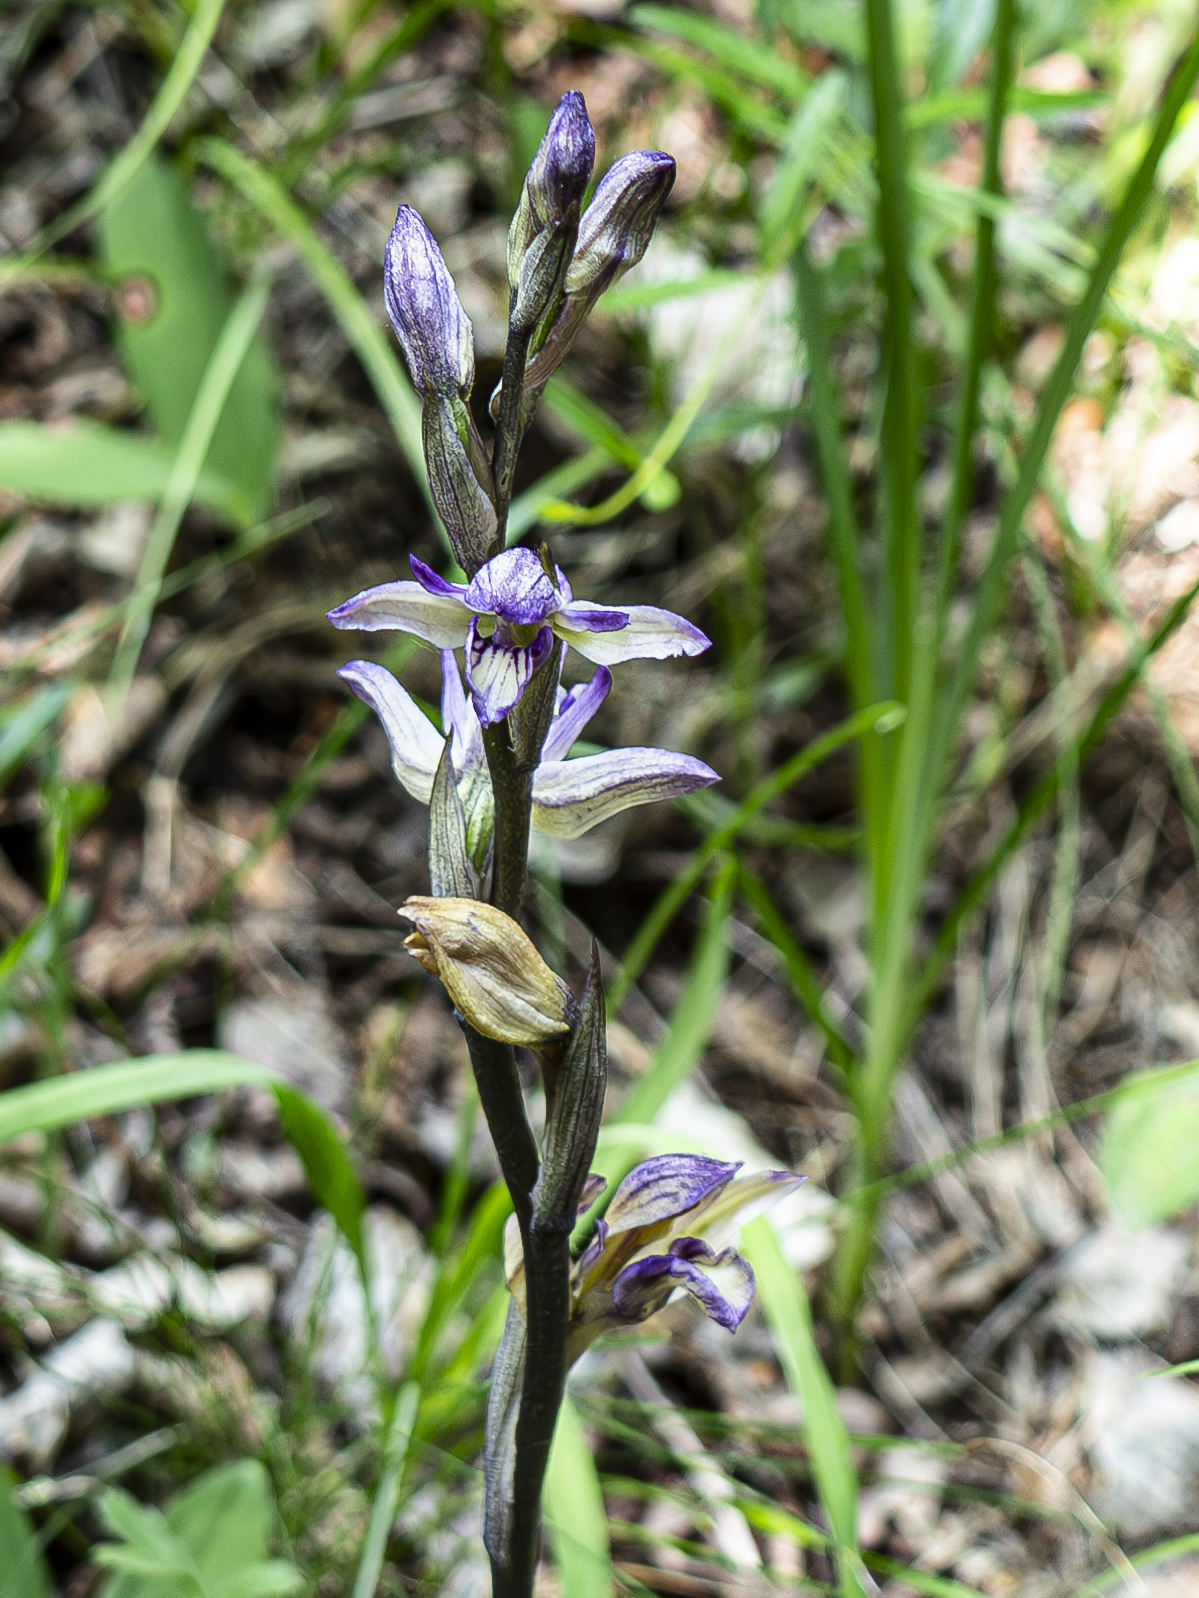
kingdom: Plantae
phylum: Tracheophyta
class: Liliopsida
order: Asparagales
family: Orchidaceae
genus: Limodorum
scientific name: Limodorum abortivum
